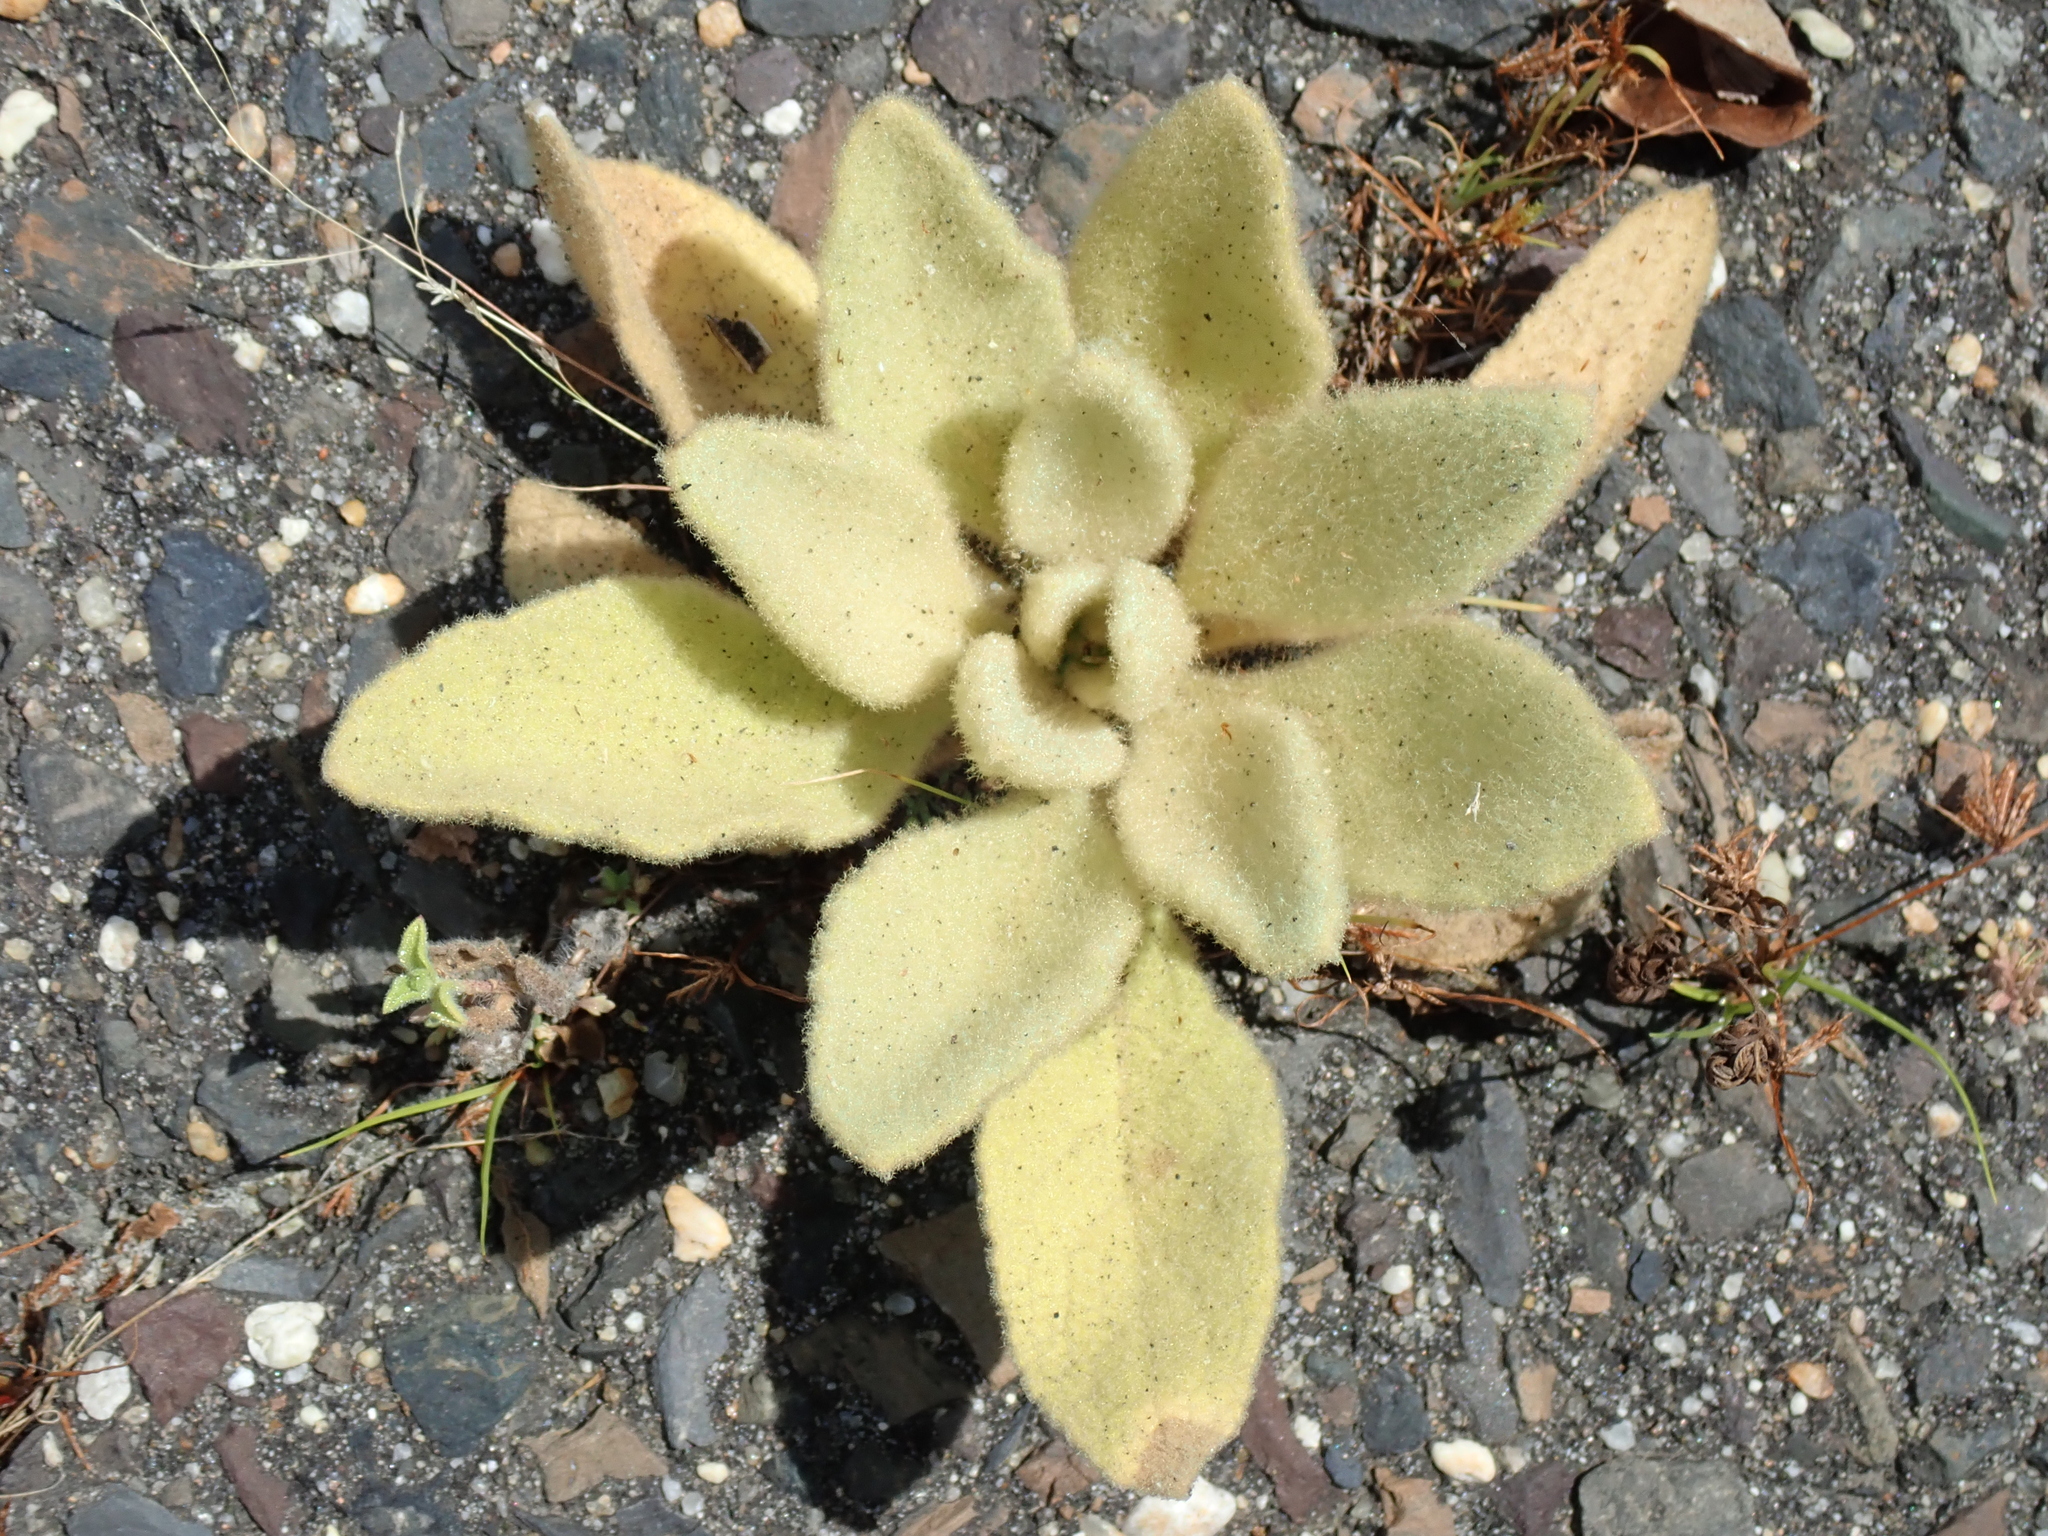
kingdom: Plantae
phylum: Tracheophyta
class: Magnoliopsida
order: Lamiales
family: Scrophulariaceae
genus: Verbascum
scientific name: Verbascum thapsus
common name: Common mullein
